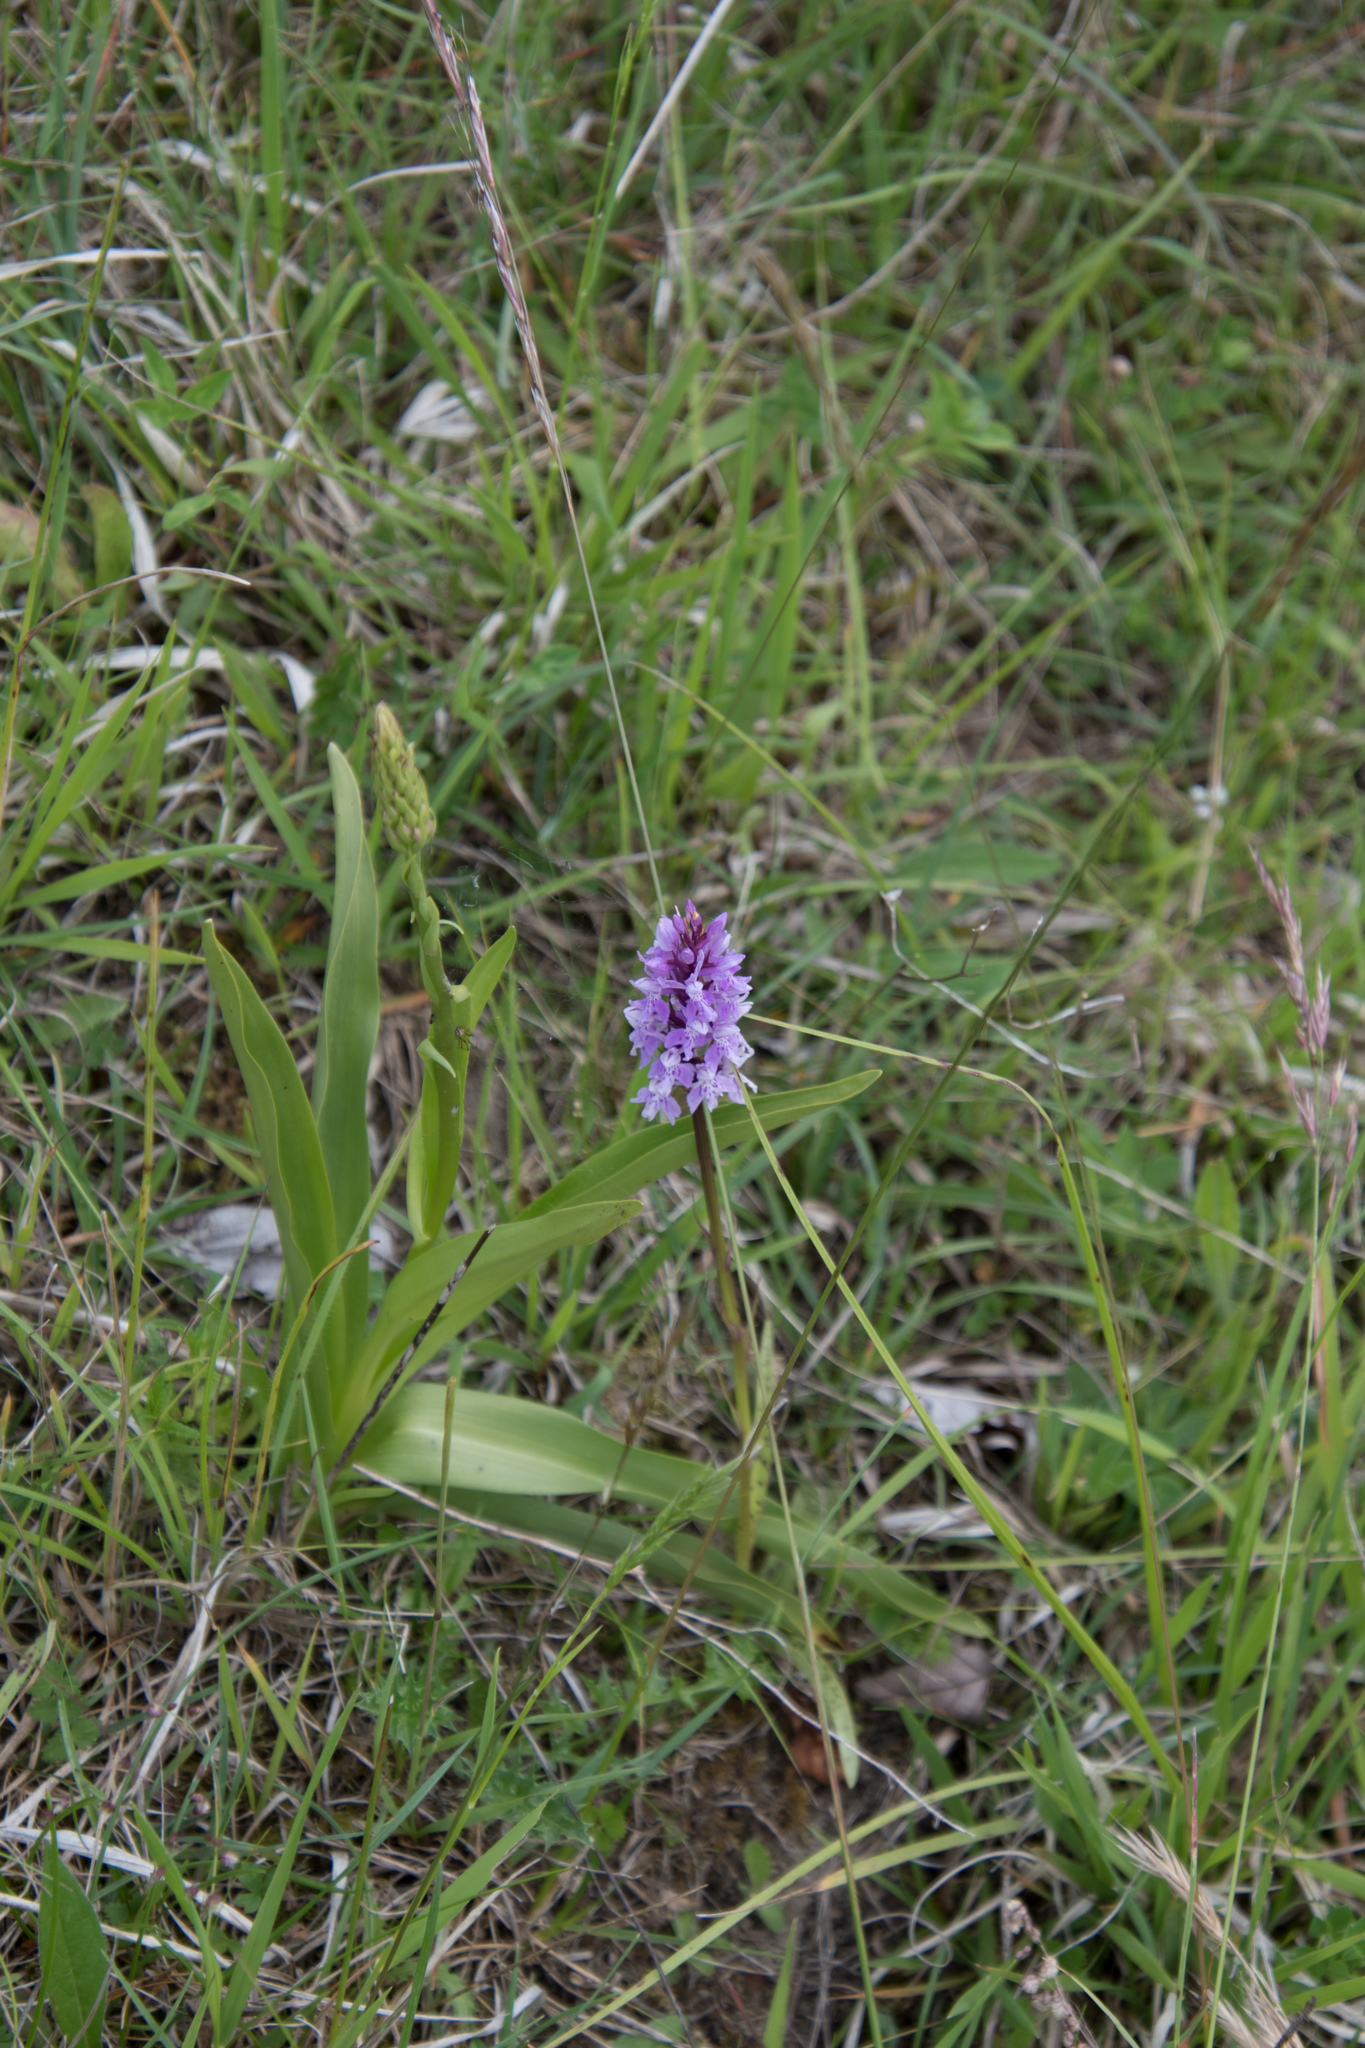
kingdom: Plantae
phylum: Tracheophyta
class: Liliopsida
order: Asparagales
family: Orchidaceae
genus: Dactylorhiza
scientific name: Dactylorhiza maculata
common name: Heath spotted-orchid
